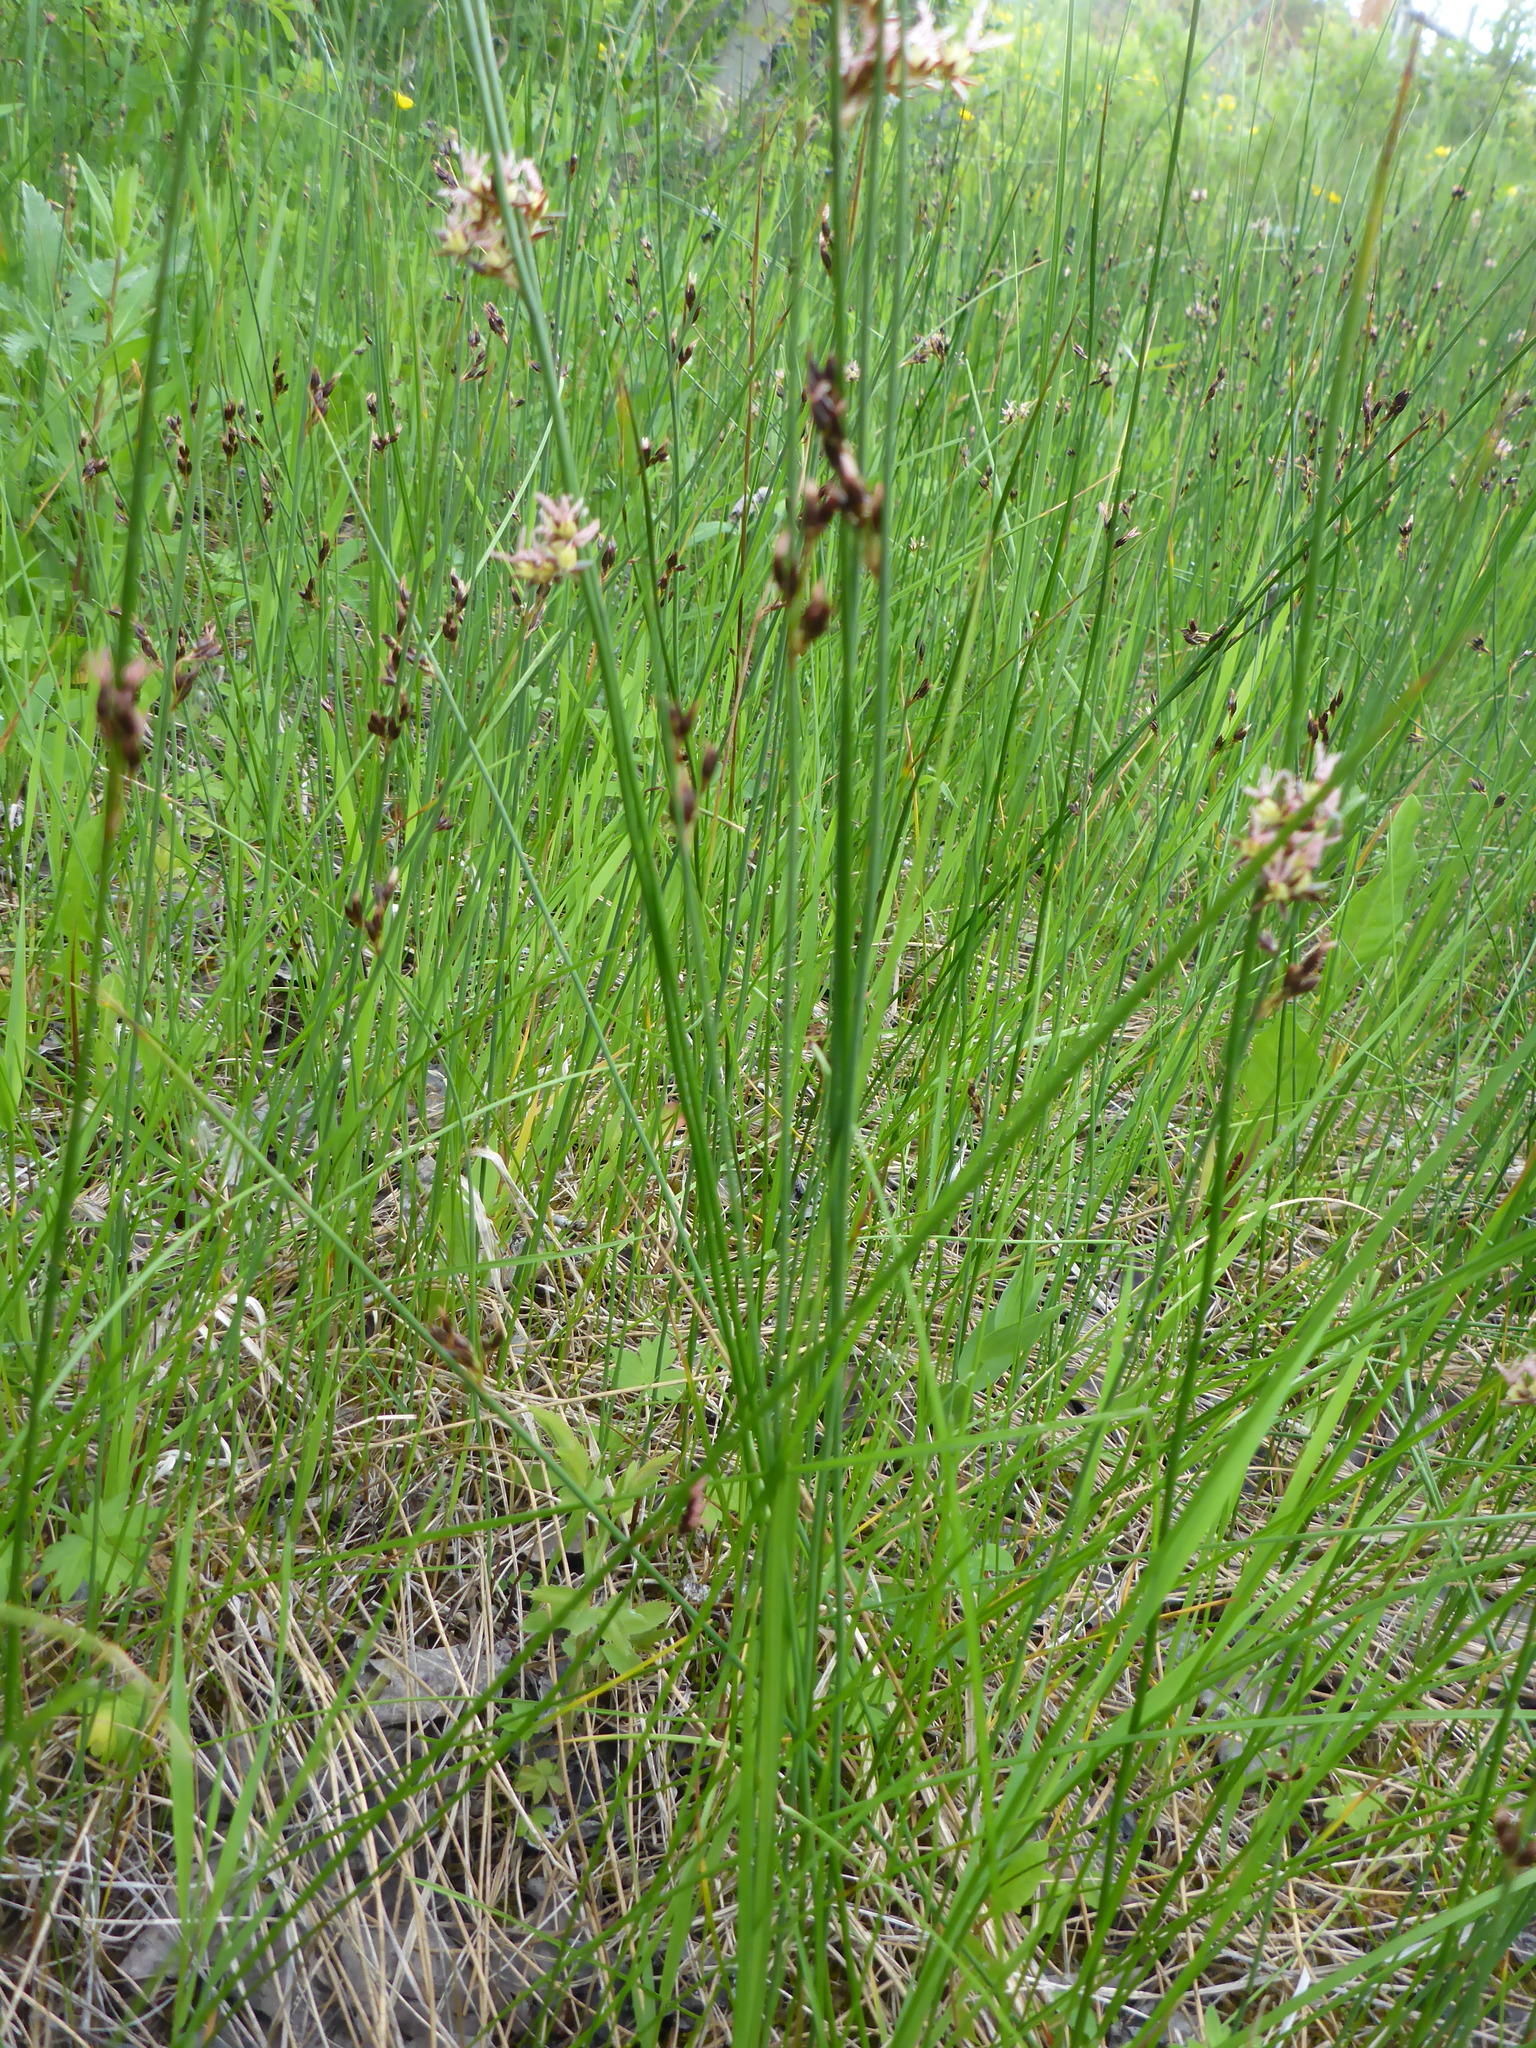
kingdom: Plantae
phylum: Tracheophyta
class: Liliopsida
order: Poales
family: Juncaceae
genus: Juncus
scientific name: Juncus balticus
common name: Baltic rush
